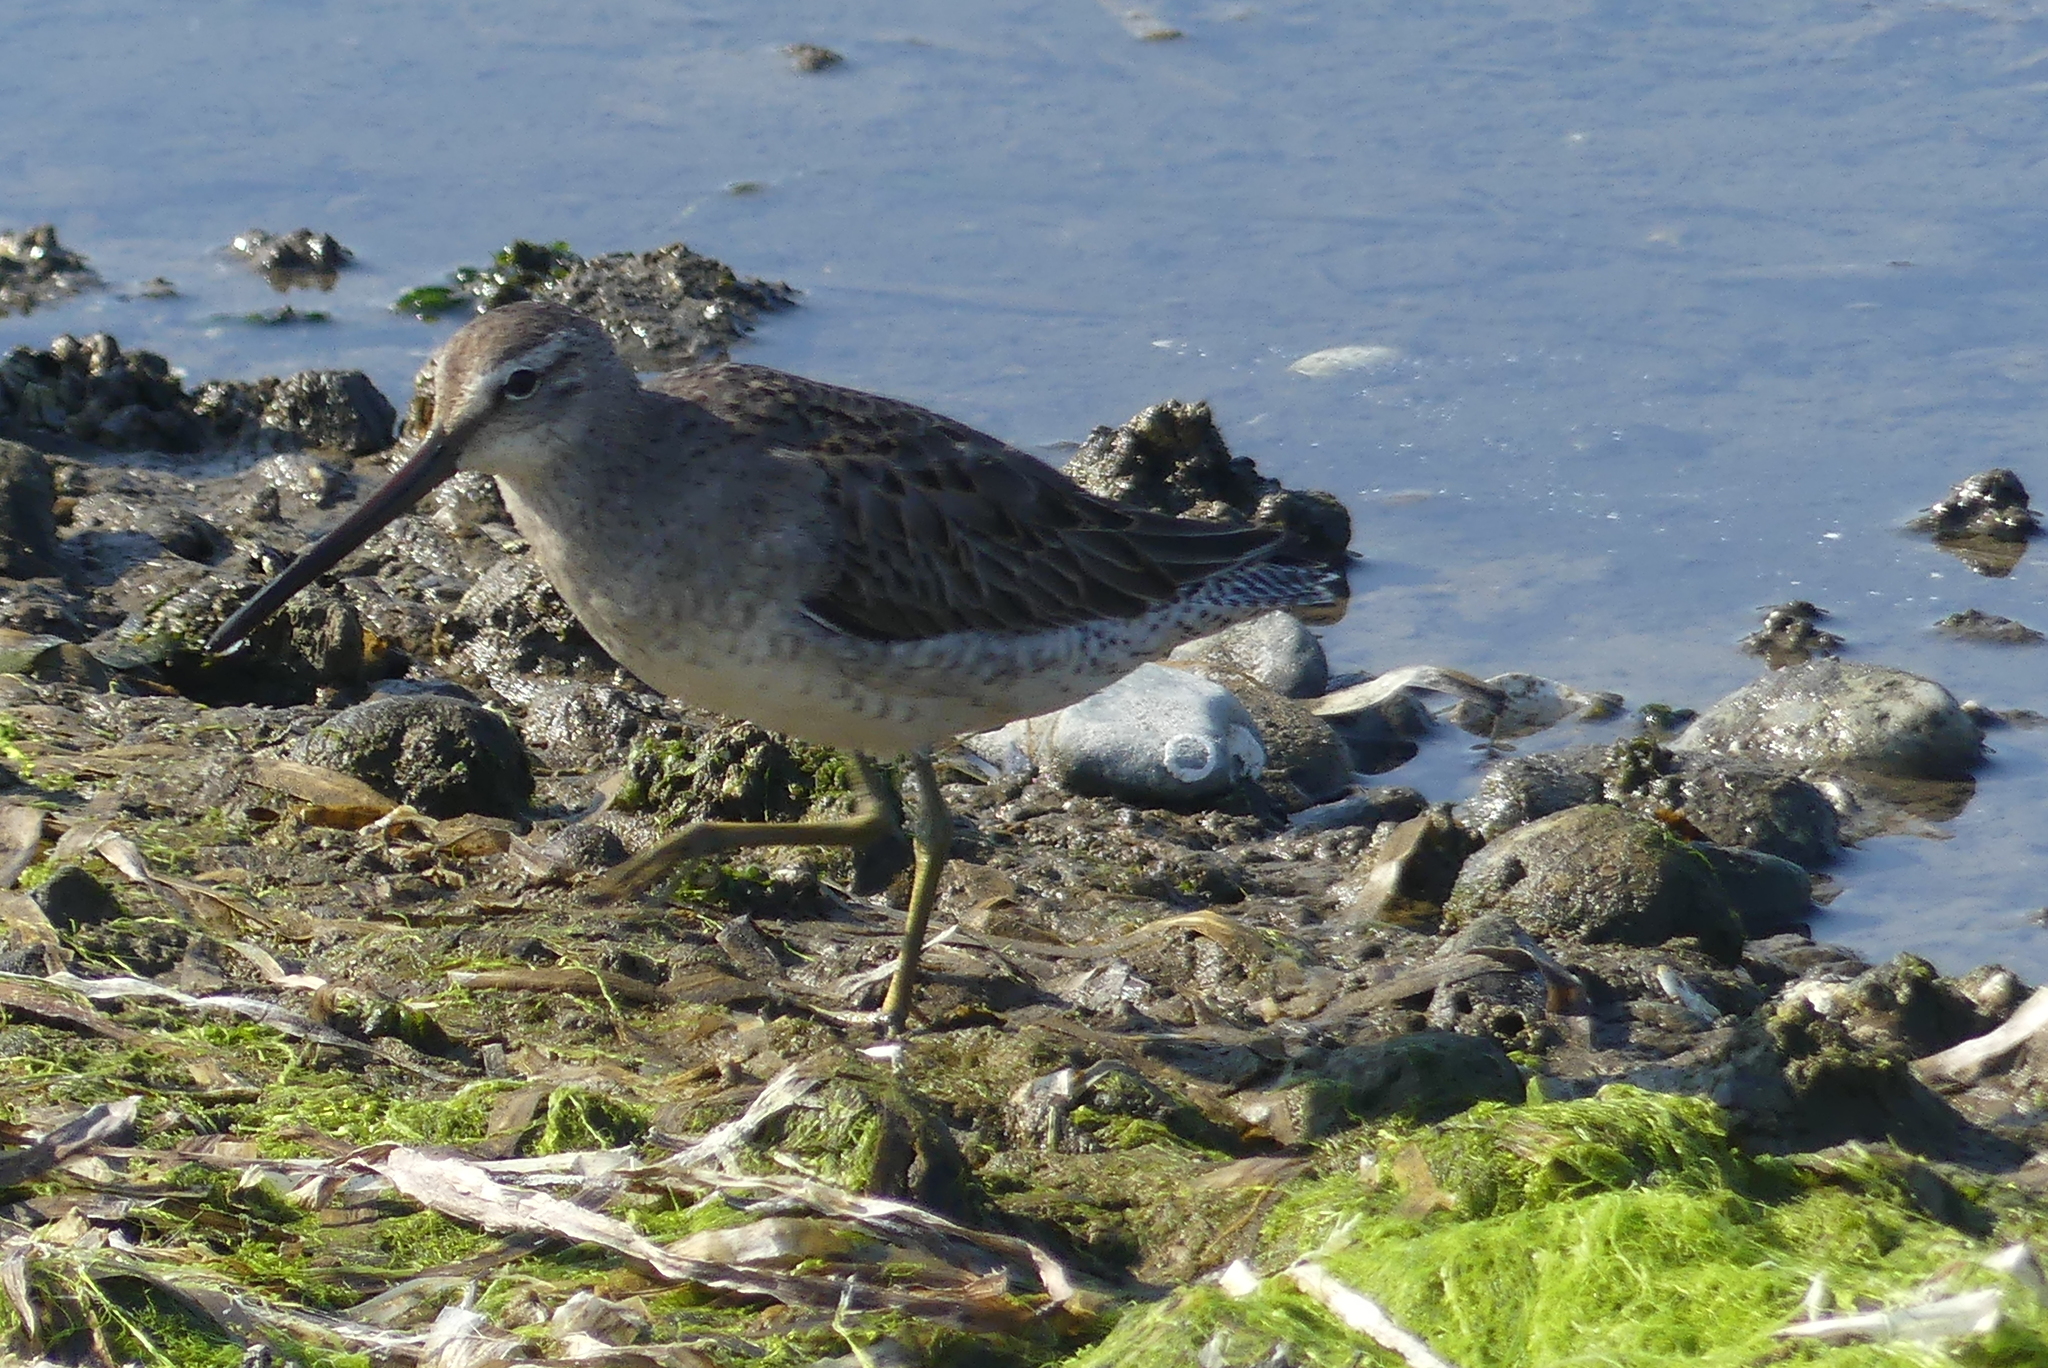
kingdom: Animalia
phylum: Chordata
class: Aves
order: Charadriiformes
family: Scolopacidae
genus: Limnodromus
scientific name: Limnodromus scolopaceus
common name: Long-billed dowitcher
